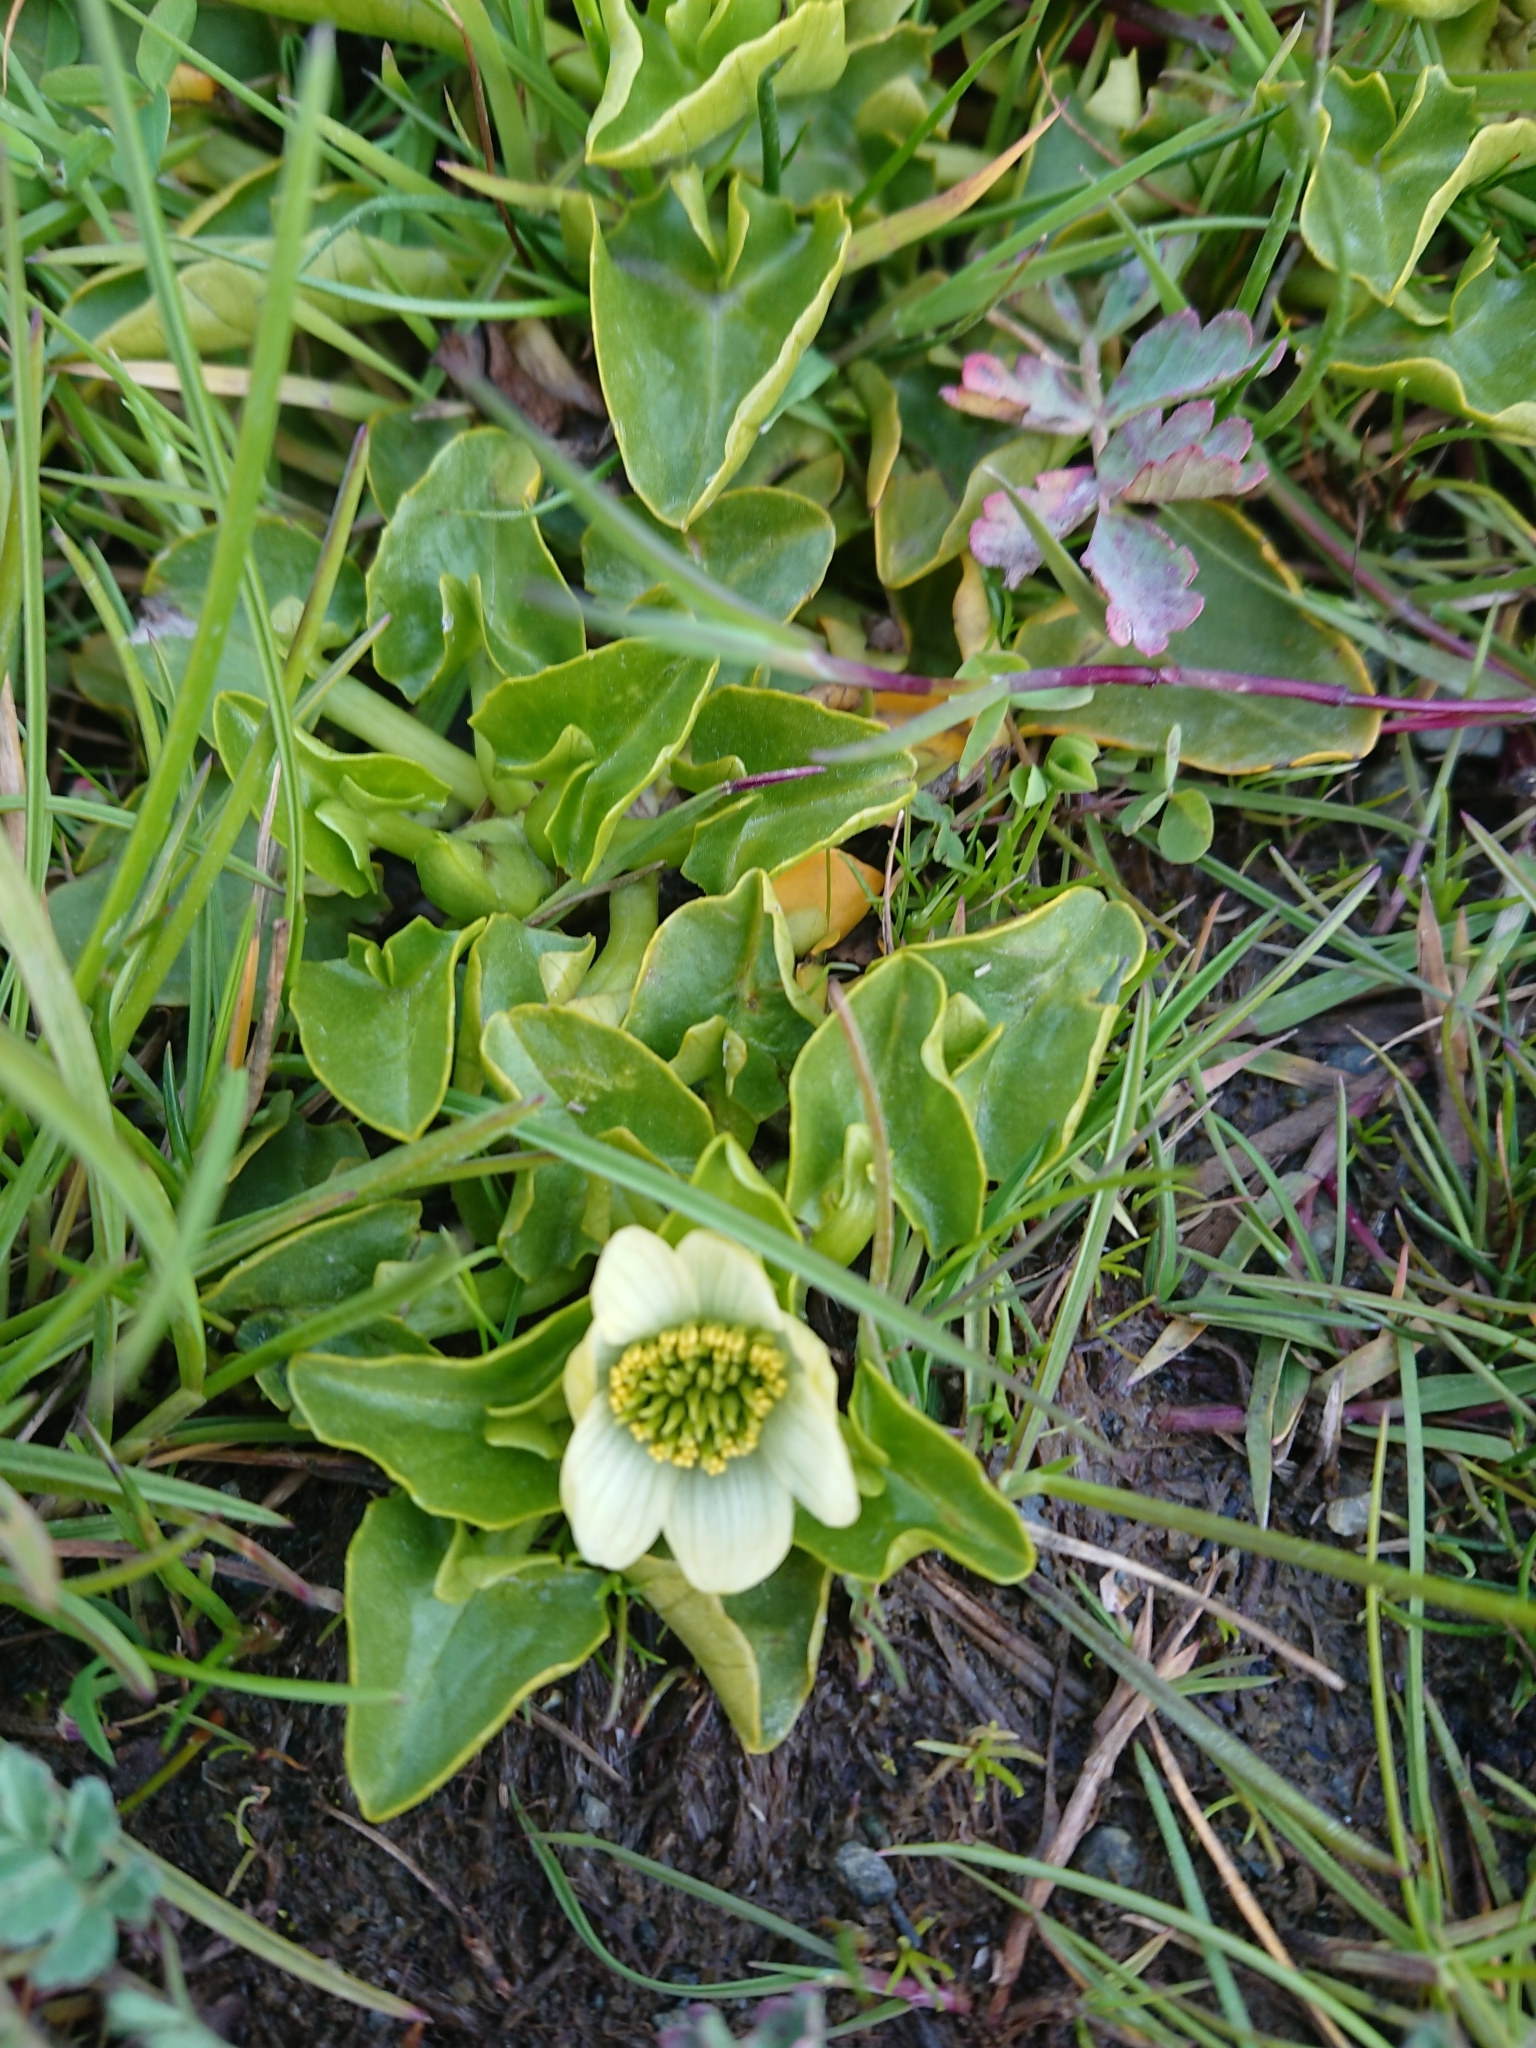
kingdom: Plantae
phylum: Tracheophyta
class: Magnoliopsida
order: Ranunculales
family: Ranunculaceae
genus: Caltha
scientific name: Caltha sagittata
